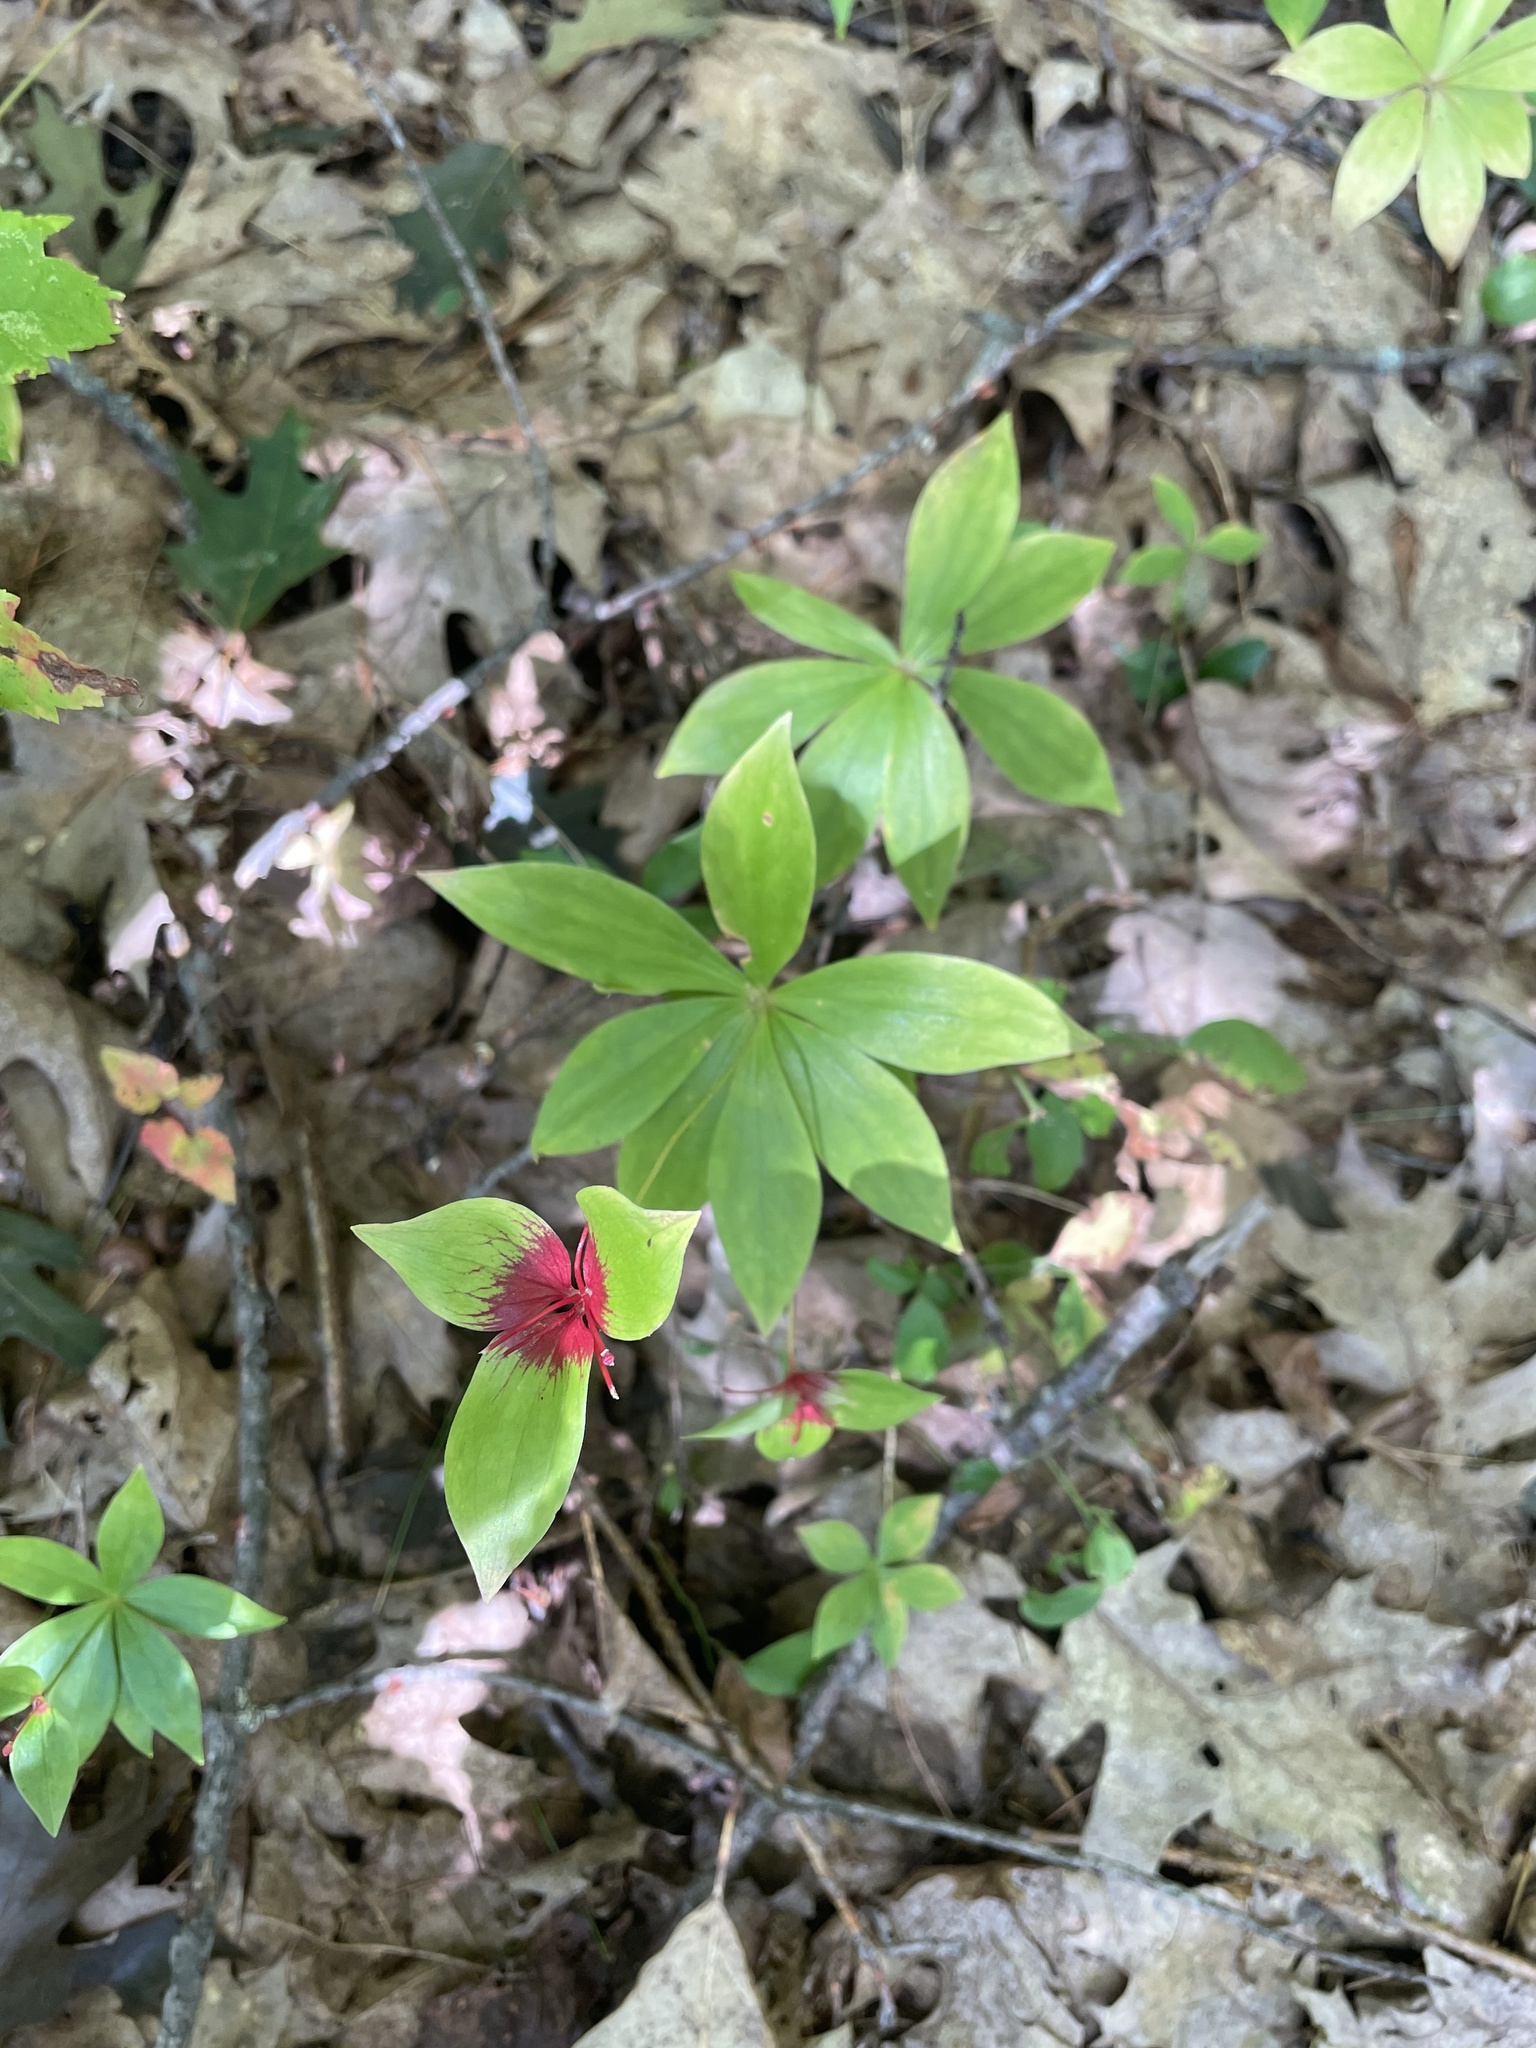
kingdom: Plantae
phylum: Tracheophyta
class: Liliopsida
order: Liliales
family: Liliaceae
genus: Medeola
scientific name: Medeola virginiana
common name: Indian cucumber-root
